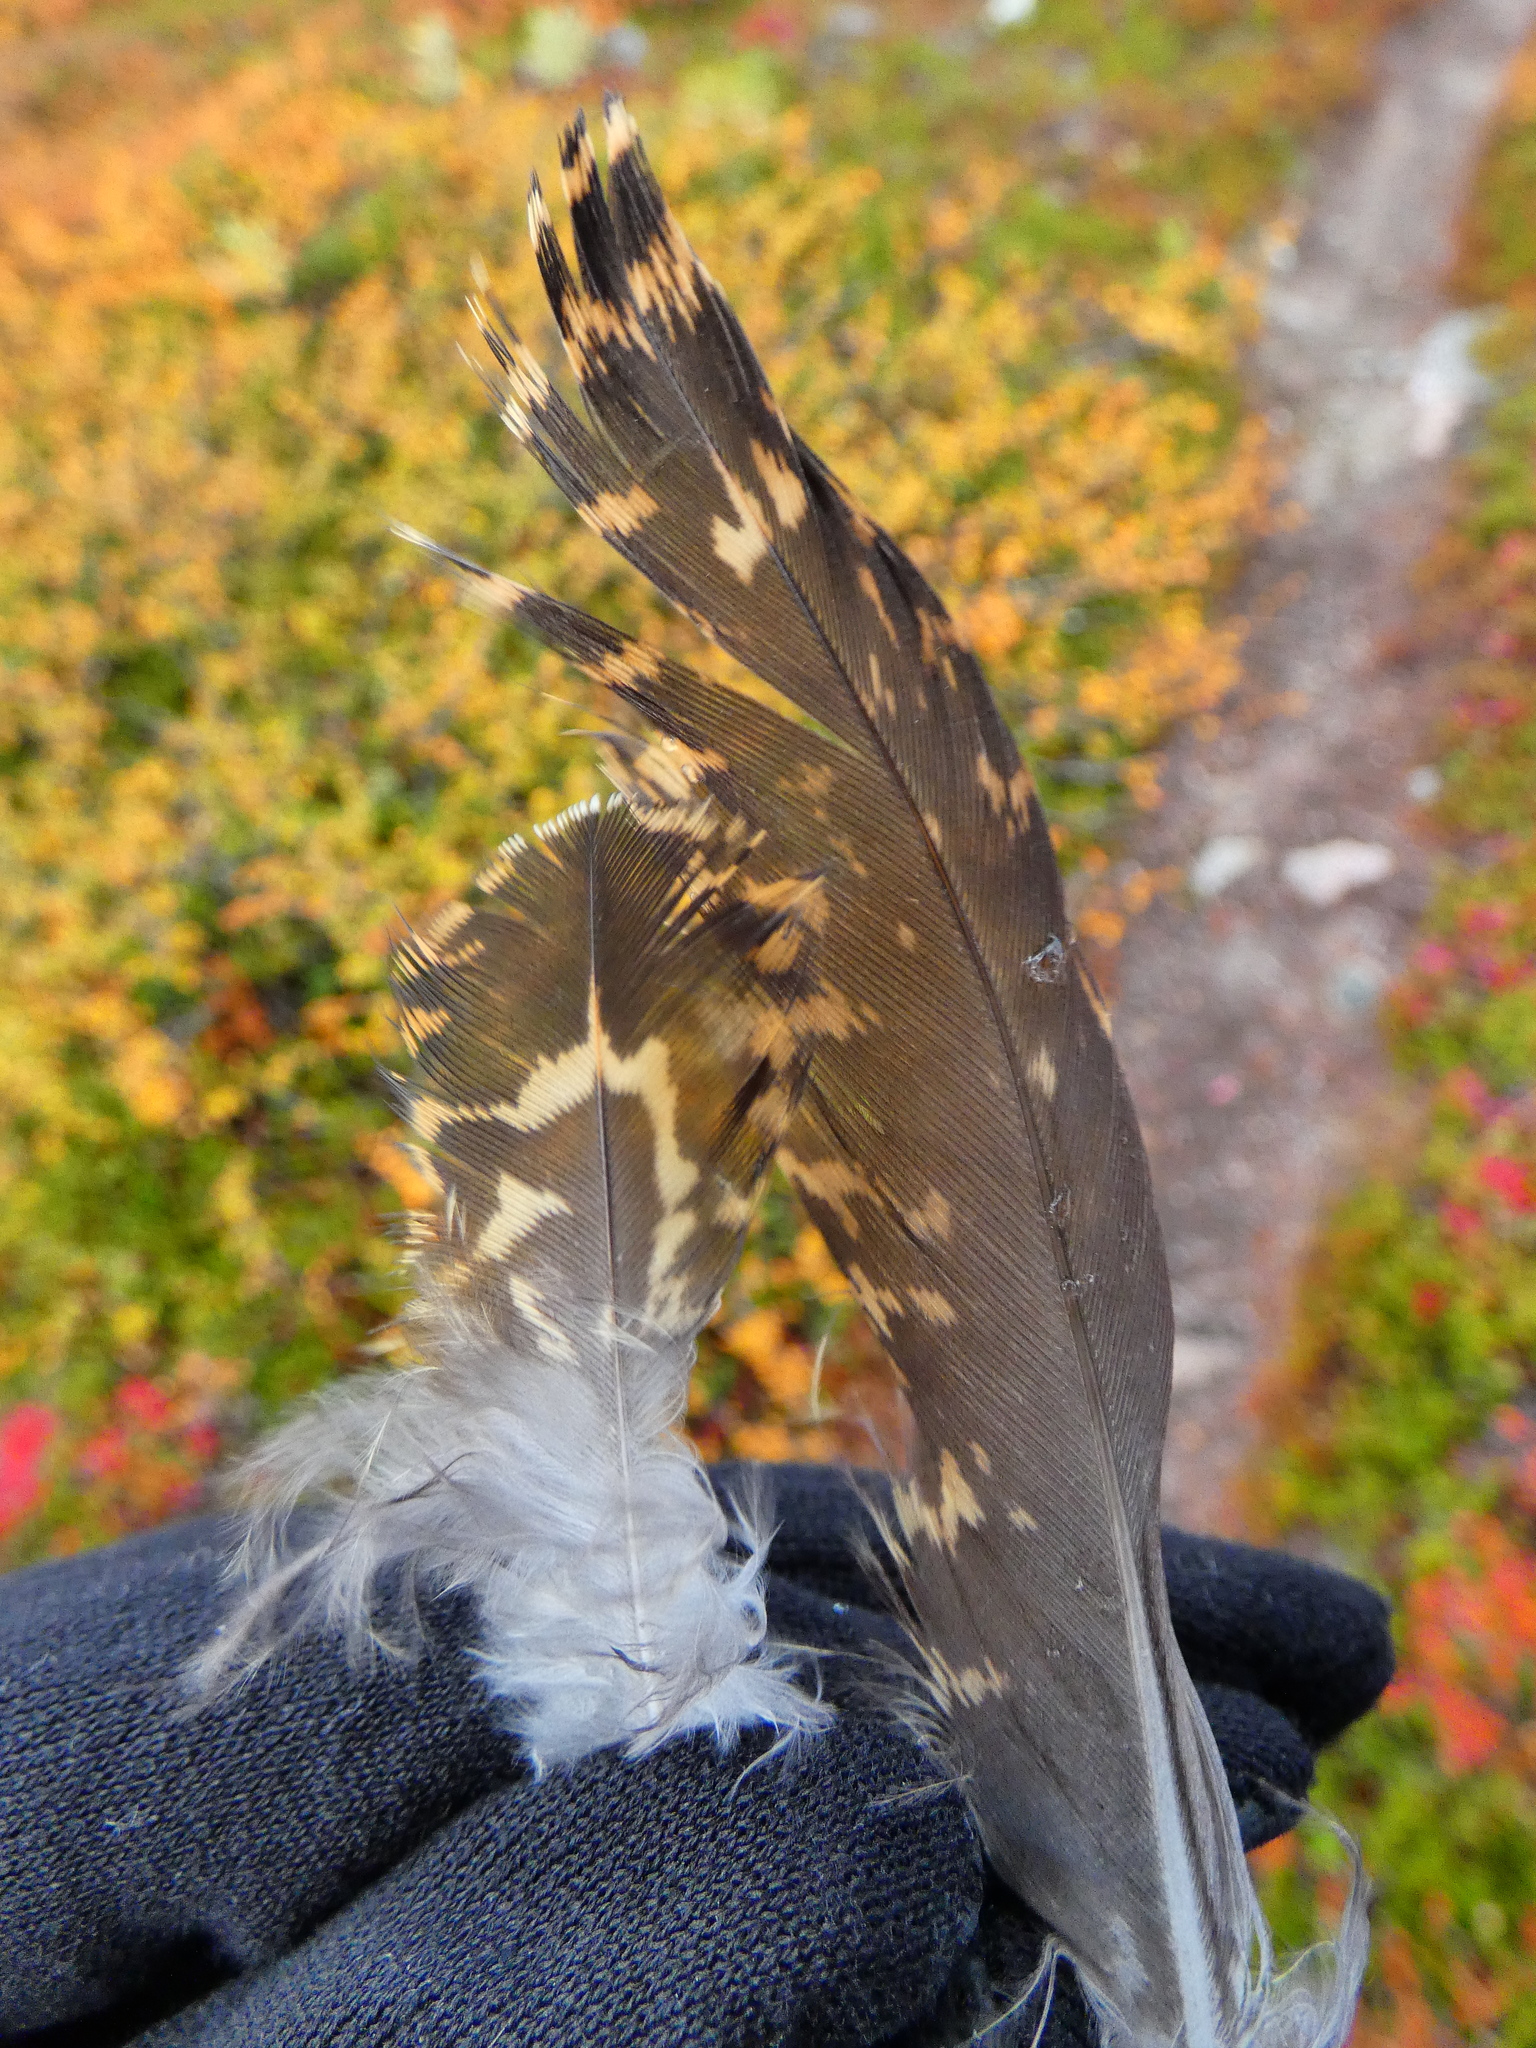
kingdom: Animalia
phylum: Chordata
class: Aves
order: Galliformes
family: Phasianidae
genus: Tetrao
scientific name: Tetrao urogallus
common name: Western capercaillie
